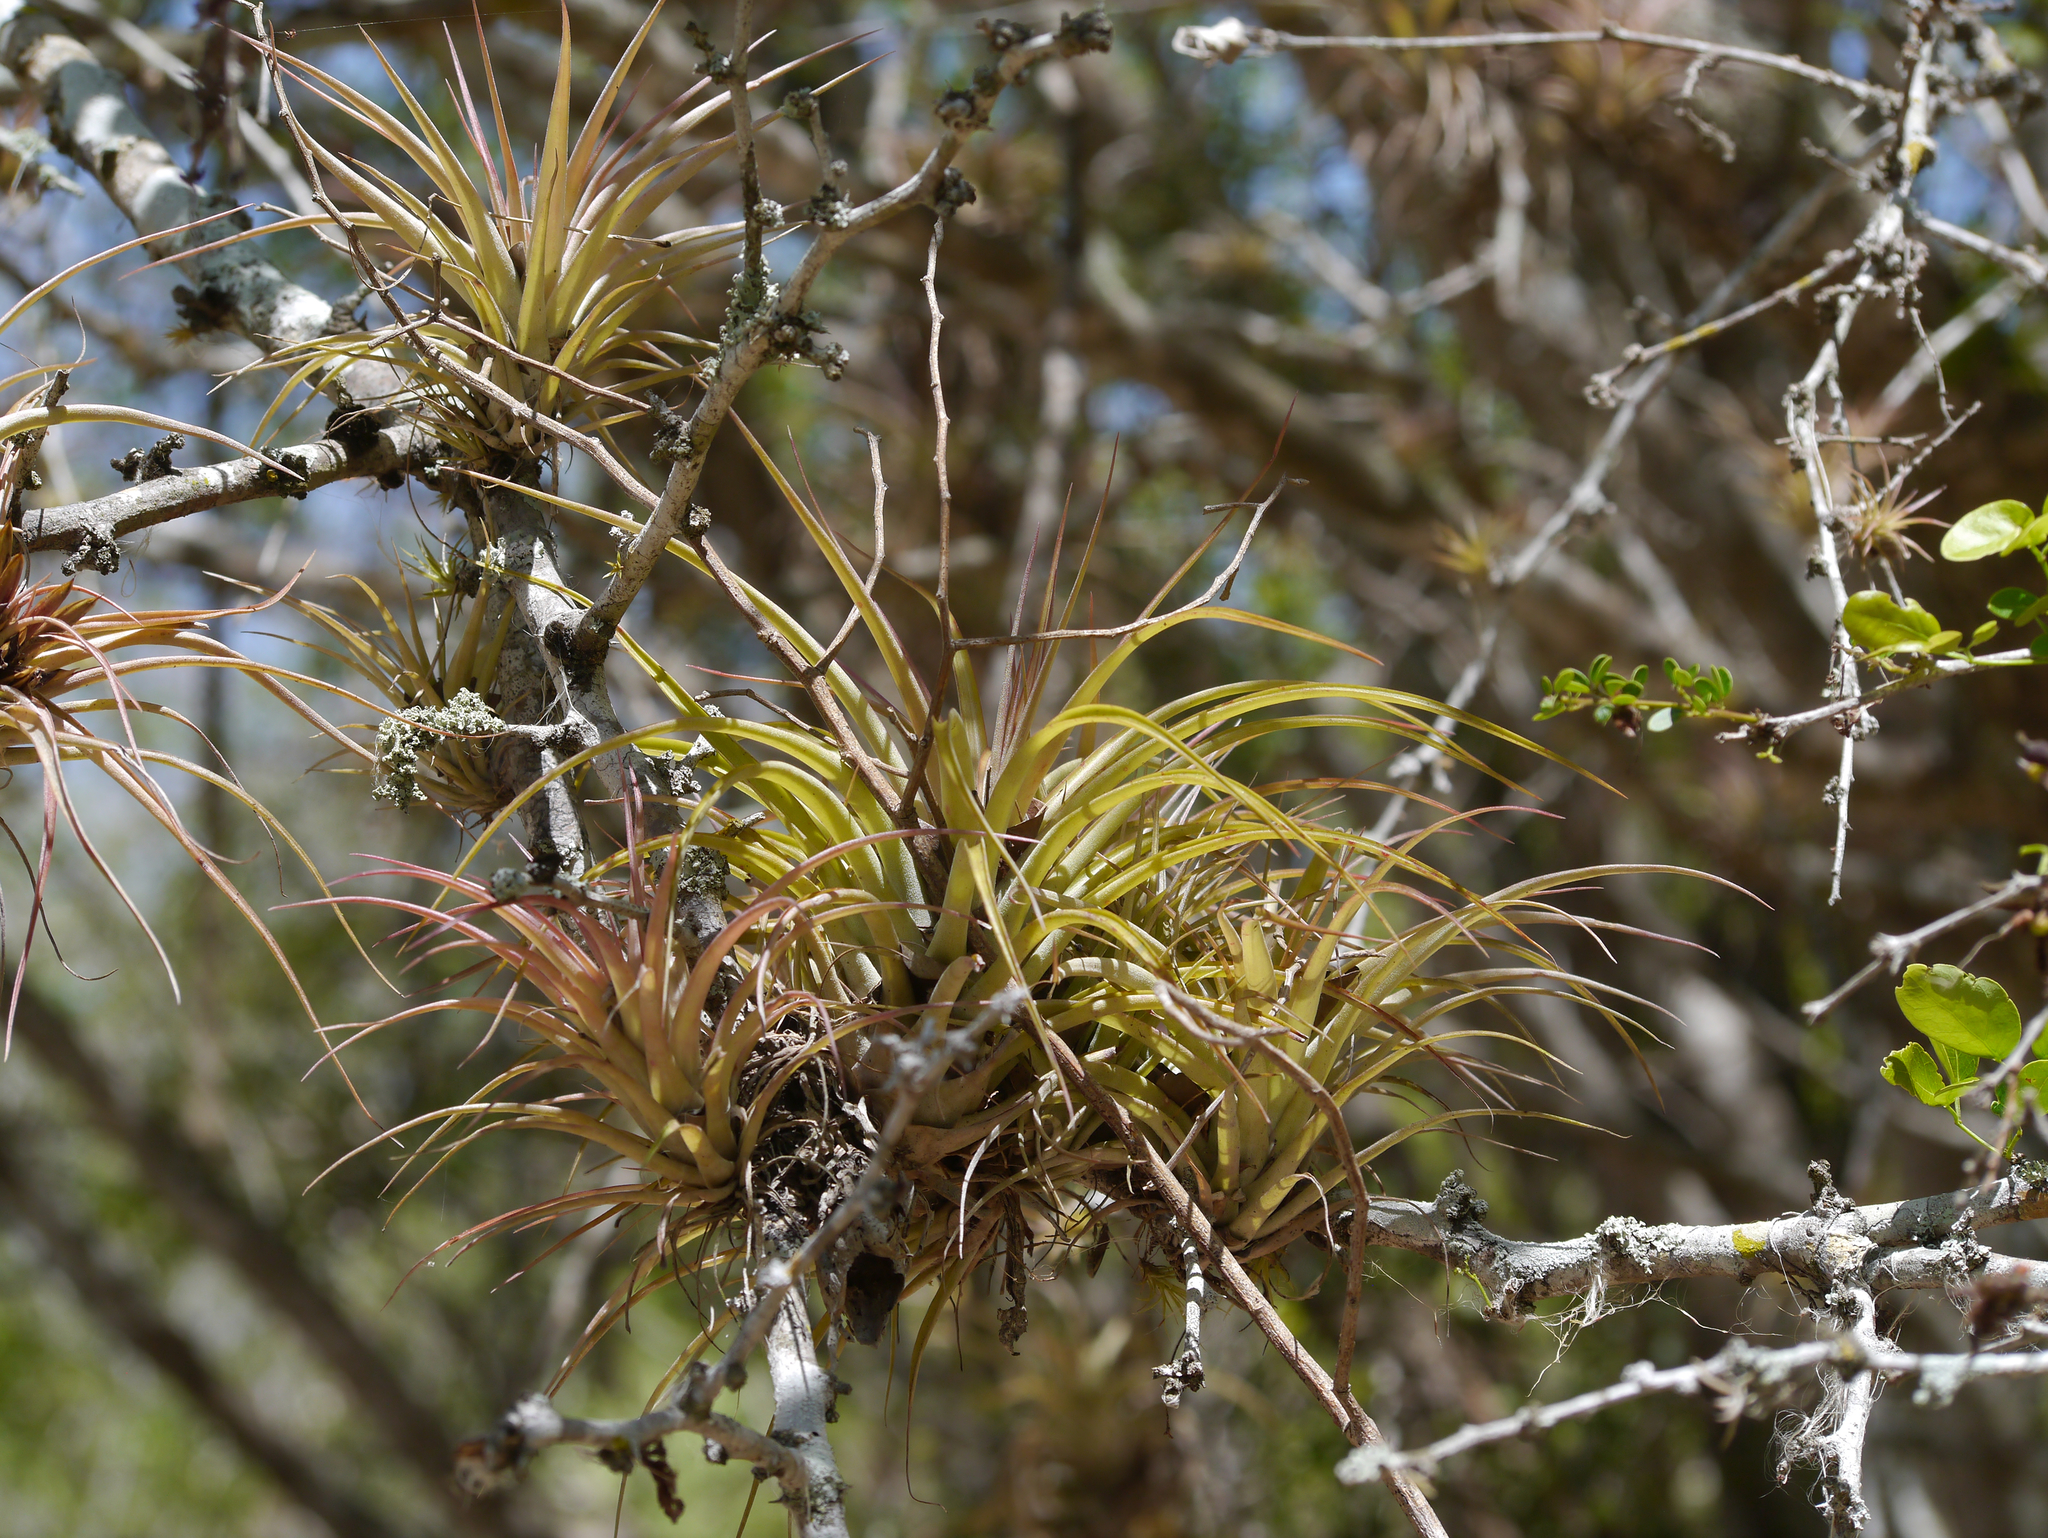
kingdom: Plantae
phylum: Tracheophyta
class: Liliopsida
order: Poales
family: Bromeliaceae
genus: Tillandsia
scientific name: Tillandsia brachycaulos
